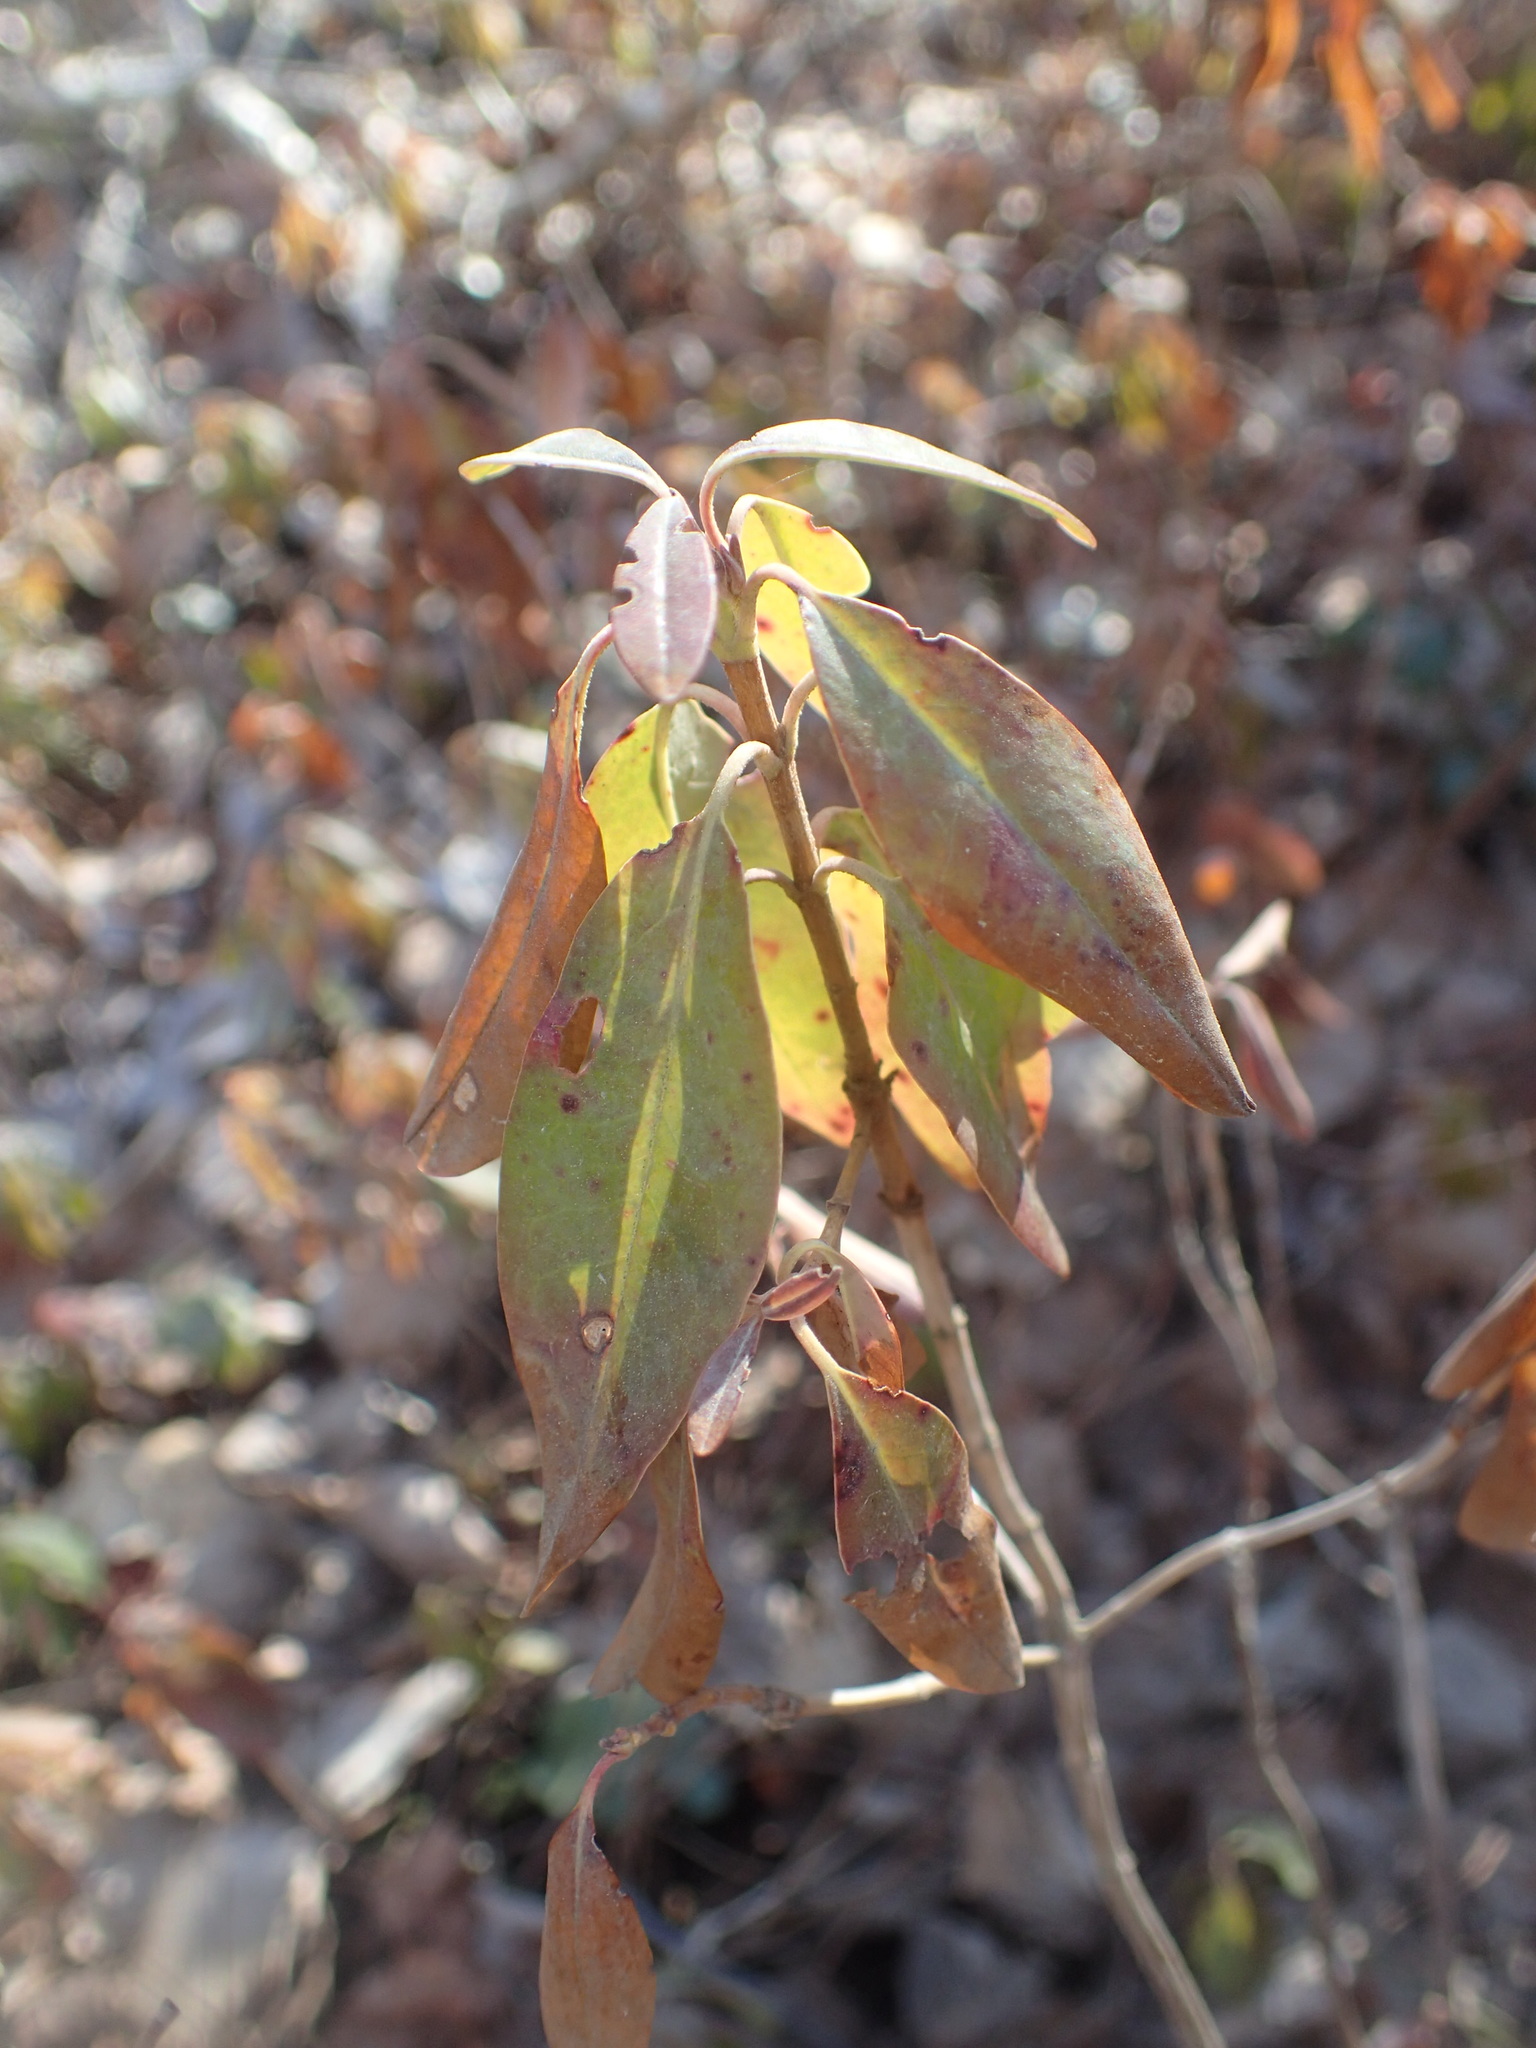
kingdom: Plantae
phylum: Tracheophyta
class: Magnoliopsida
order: Ericales
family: Ericaceae
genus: Kalmia
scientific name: Kalmia angustifolia
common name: Sheep-laurel
